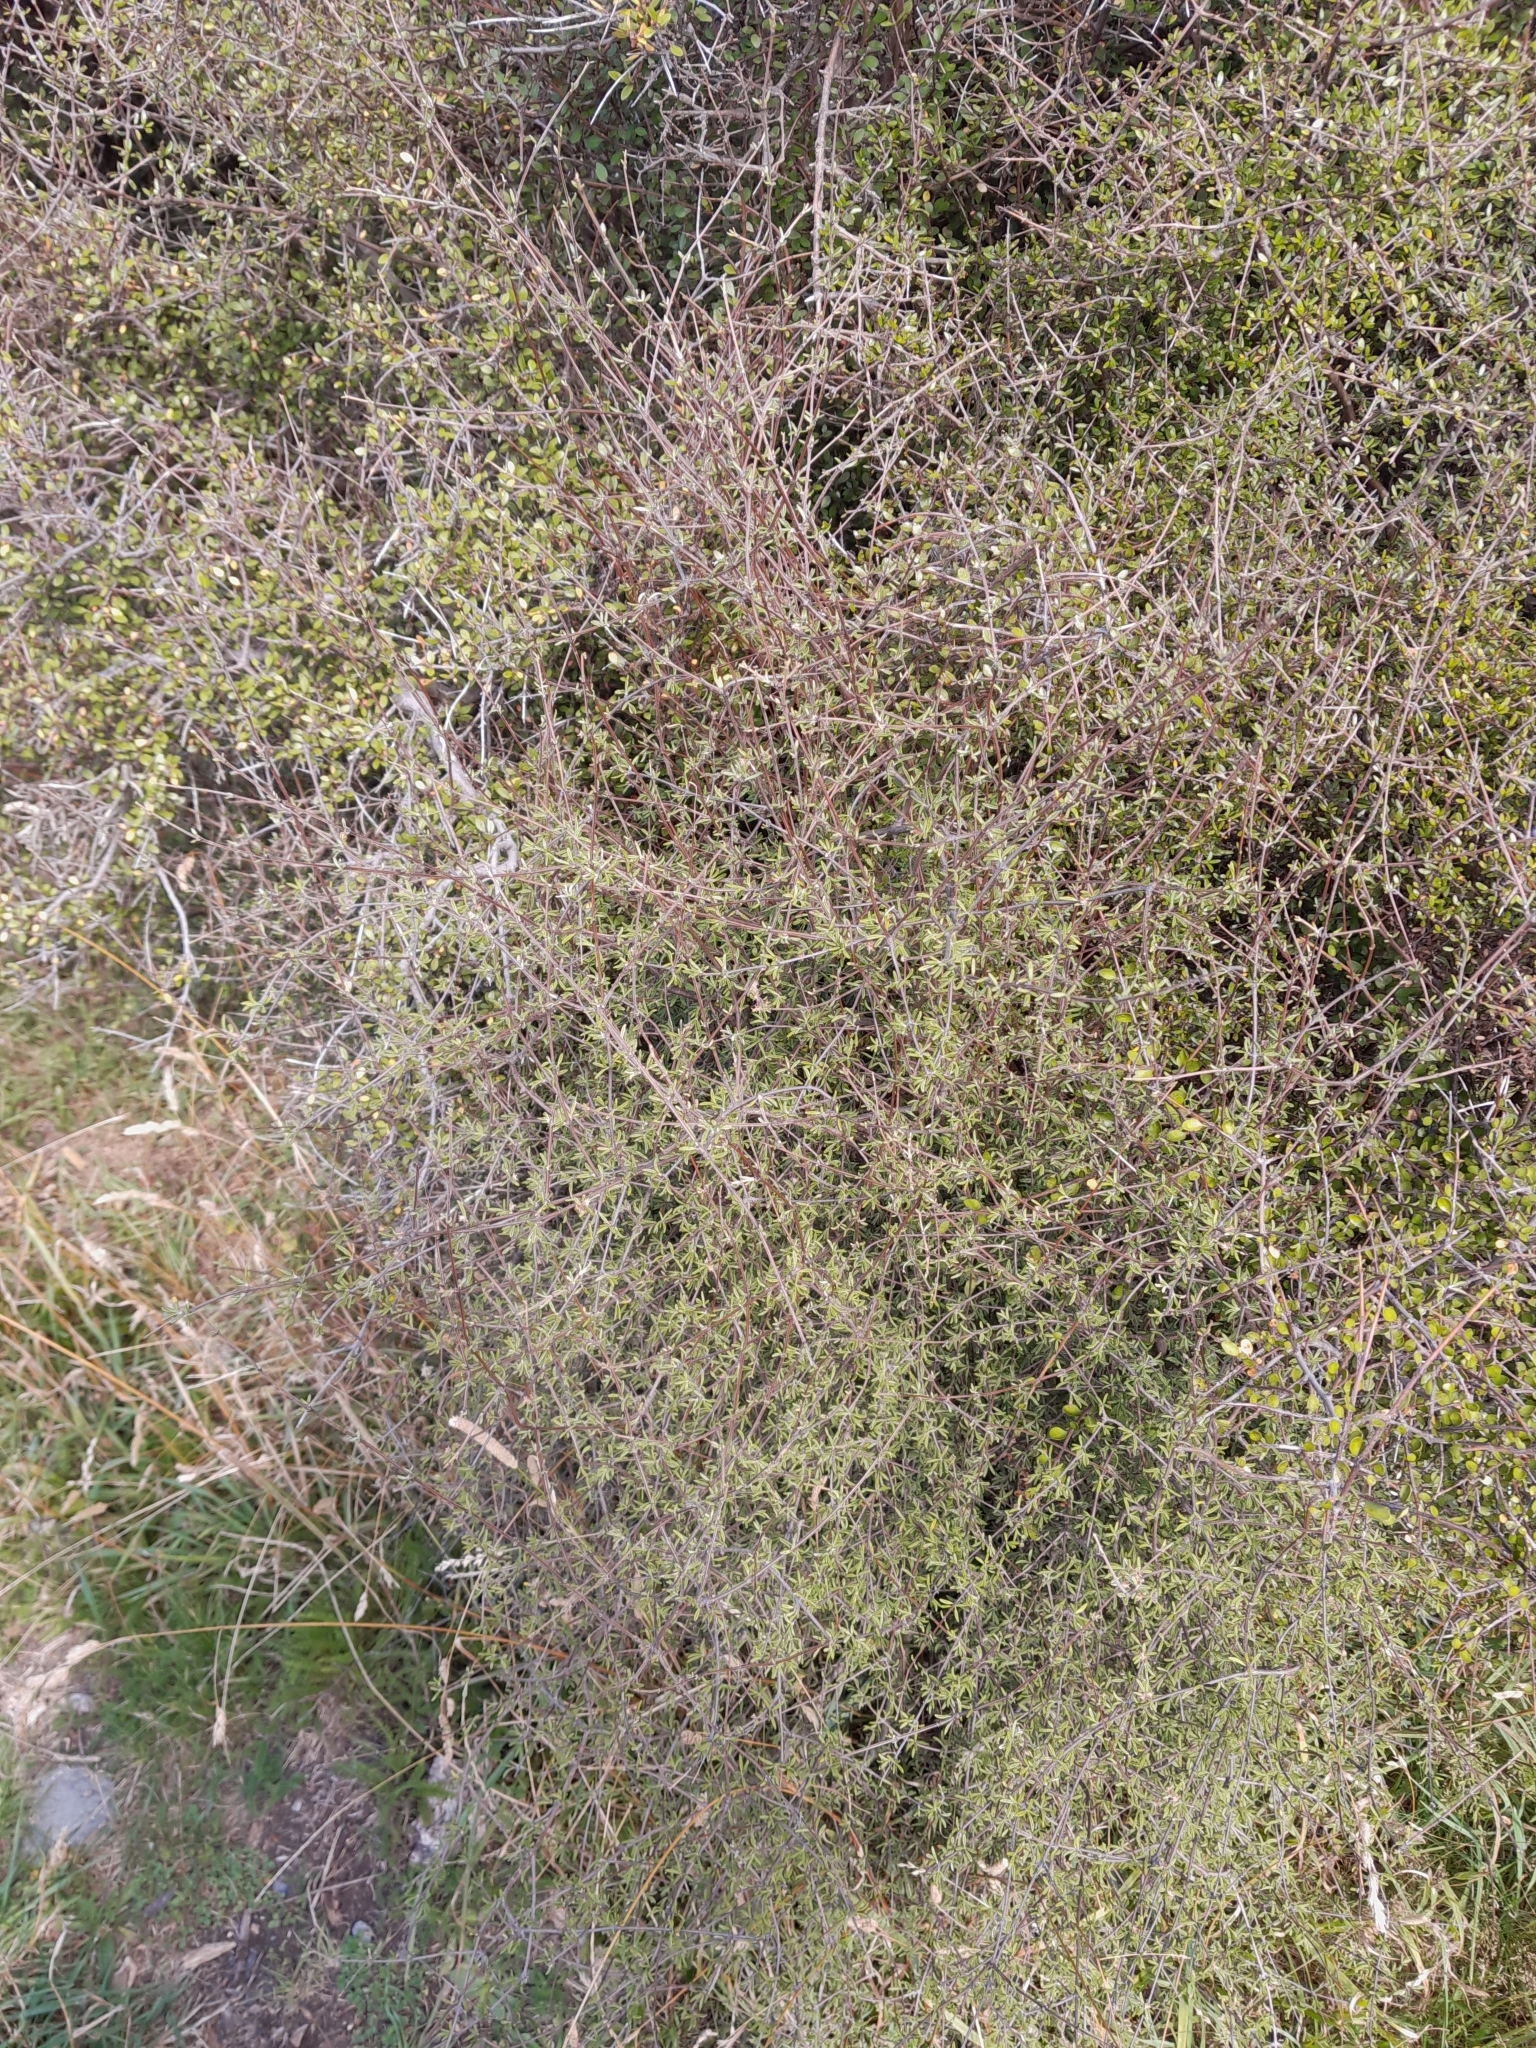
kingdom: Plantae
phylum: Tracheophyta
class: Magnoliopsida
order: Asterales
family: Asteraceae
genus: Olearia
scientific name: Olearia bullata
